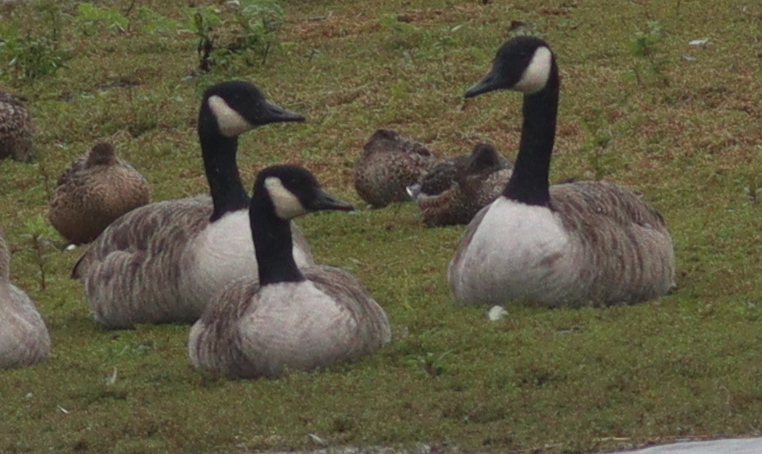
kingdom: Animalia
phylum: Chordata
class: Aves
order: Anseriformes
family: Anatidae
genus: Branta
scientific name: Branta canadensis
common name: Canada goose
